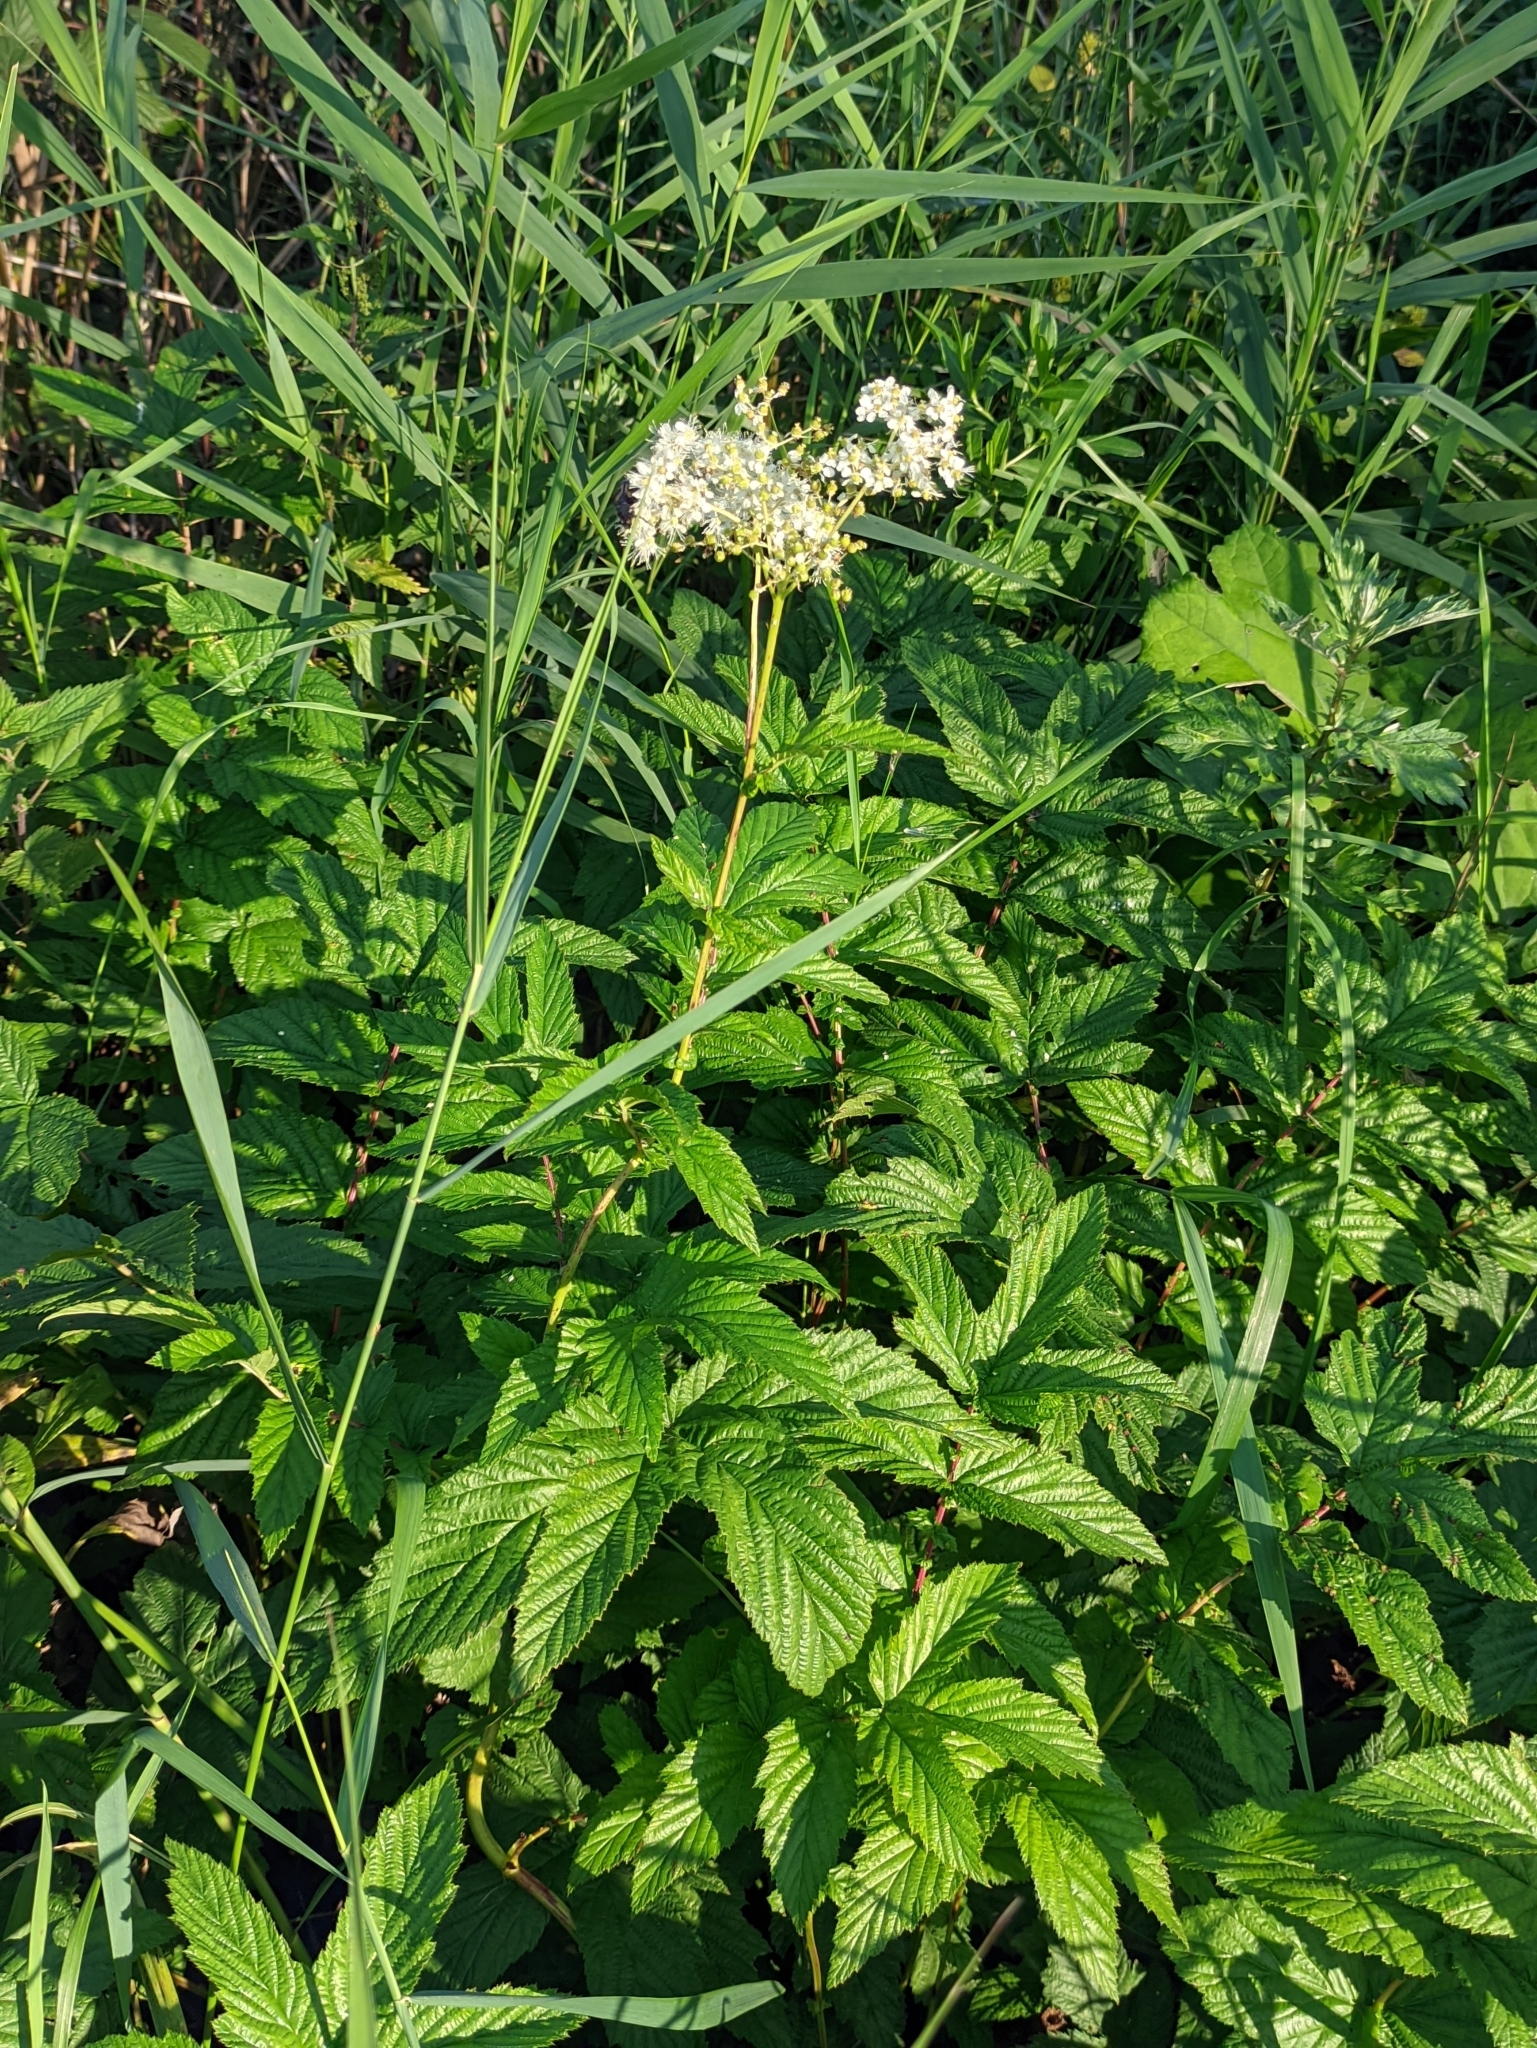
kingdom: Plantae
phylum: Tracheophyta
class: Magnoliopsida
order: Rosales
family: Rosaceae
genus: Filipendula
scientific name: Filipendula ulmaria
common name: Meadowsweet
